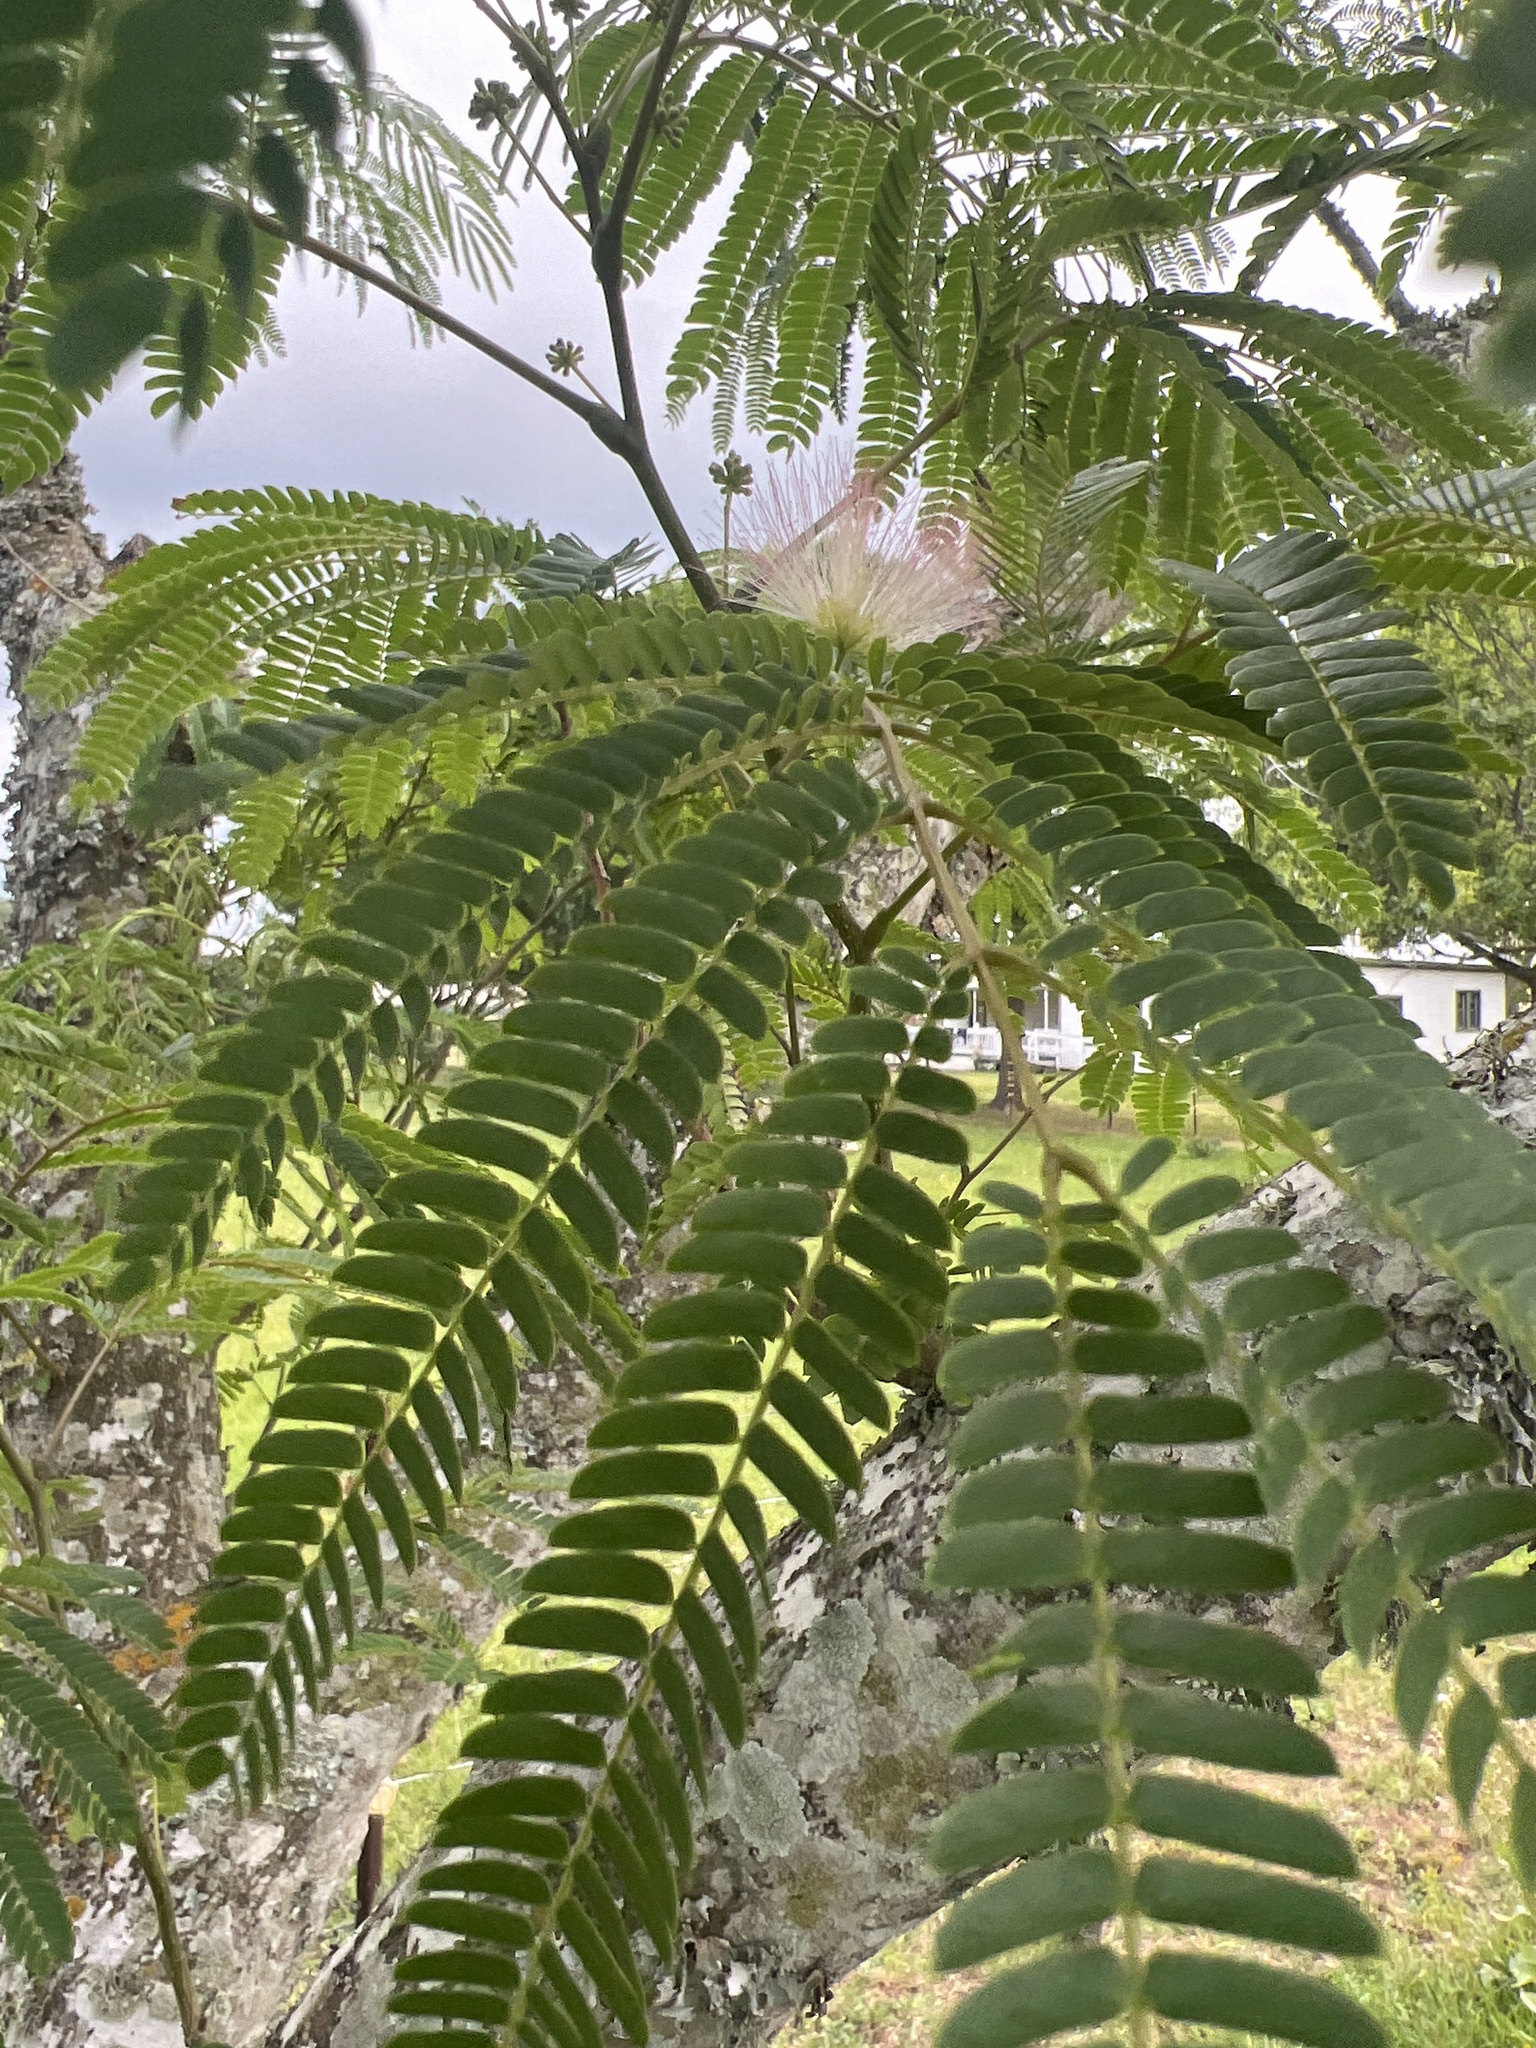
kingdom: Plantae
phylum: Tracheophyta
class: Magnoliopsida
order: Fabales
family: Fabaceae
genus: Albizia
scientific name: Albizia julibrissin
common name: Silktree
